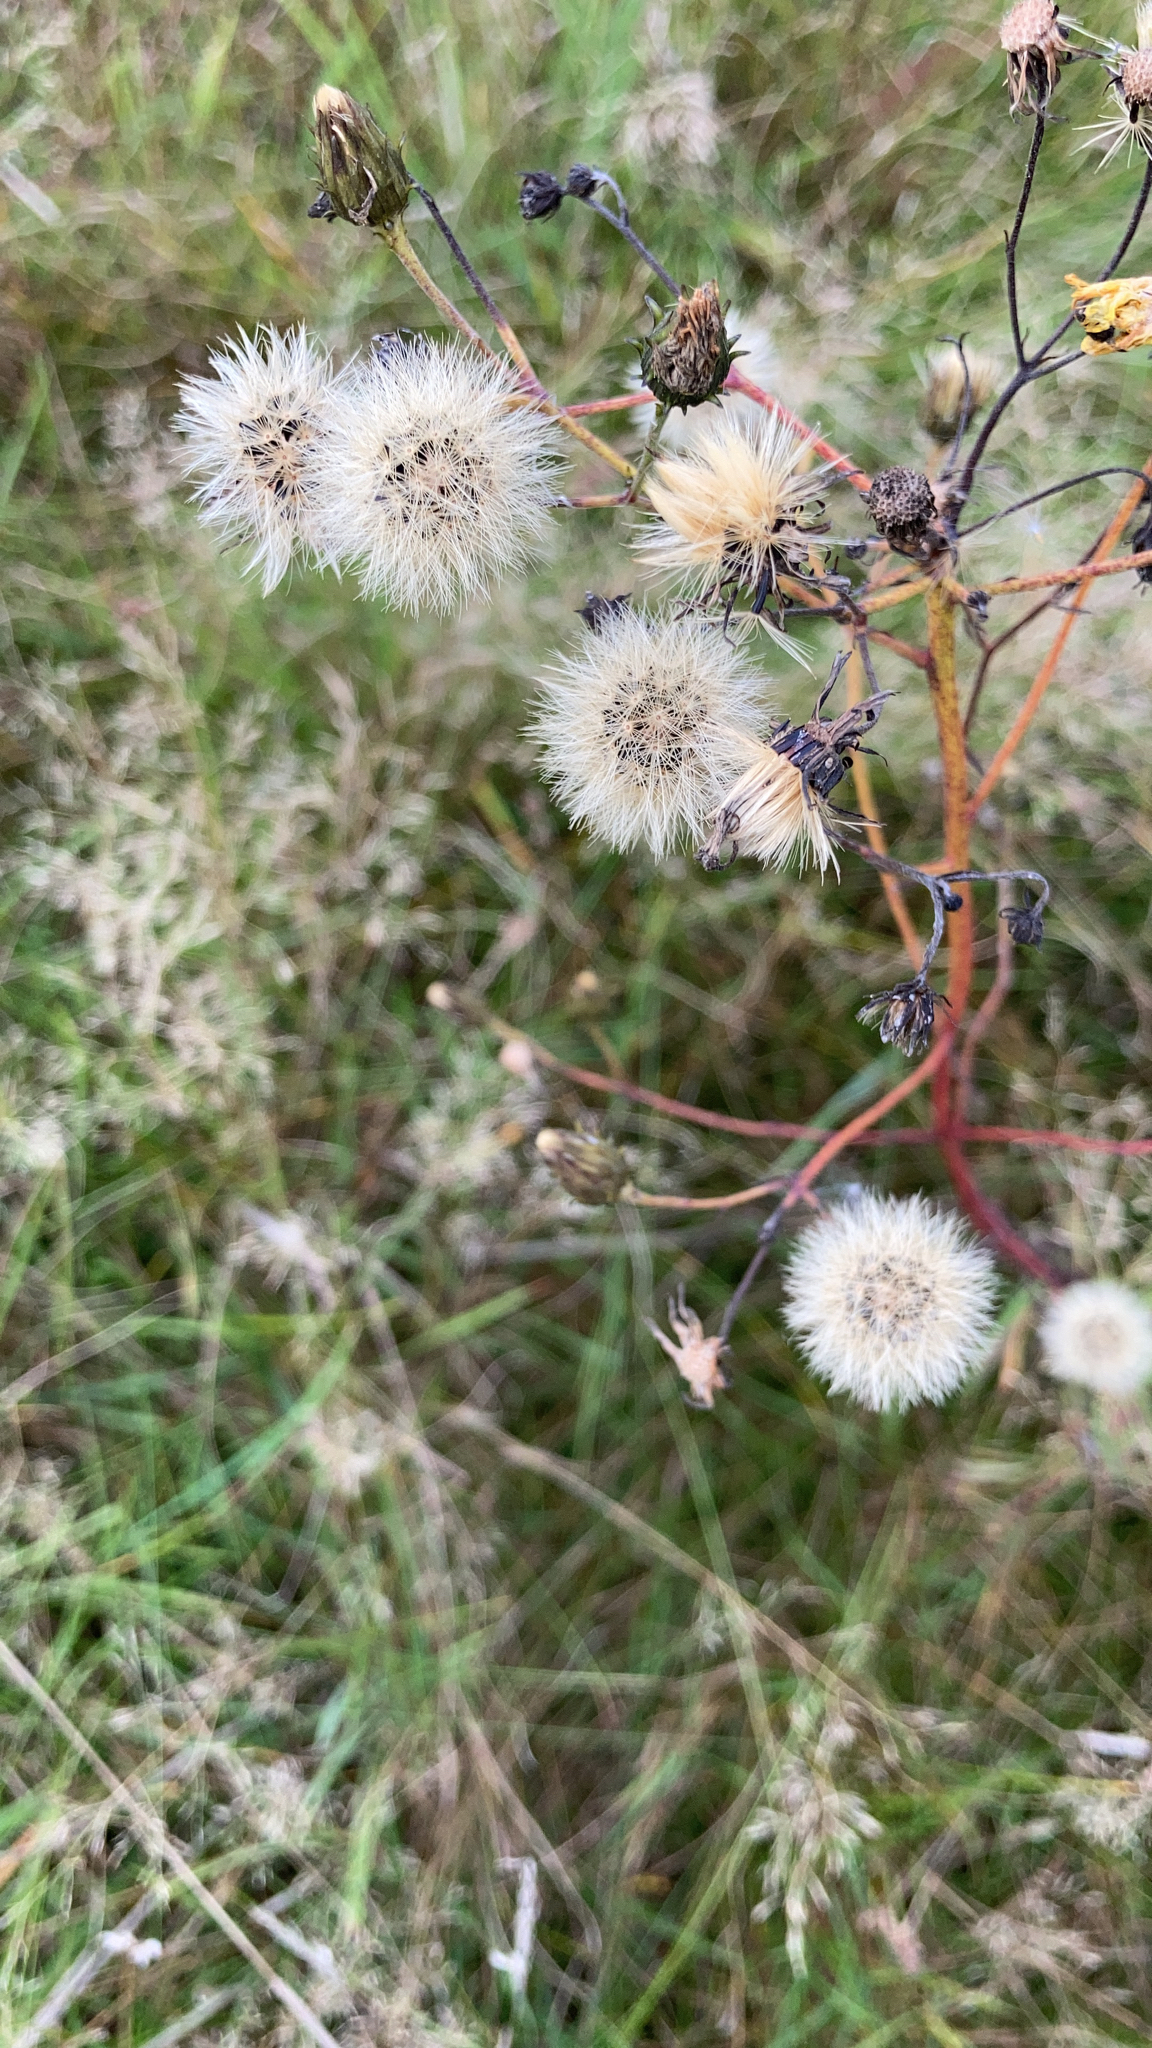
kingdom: Plantae
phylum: Tracheophyta
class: Magnoliopsida
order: Asterales
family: Asteraceae
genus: Hieracium
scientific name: Hieracium umbellatum
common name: Northern hawkweed
